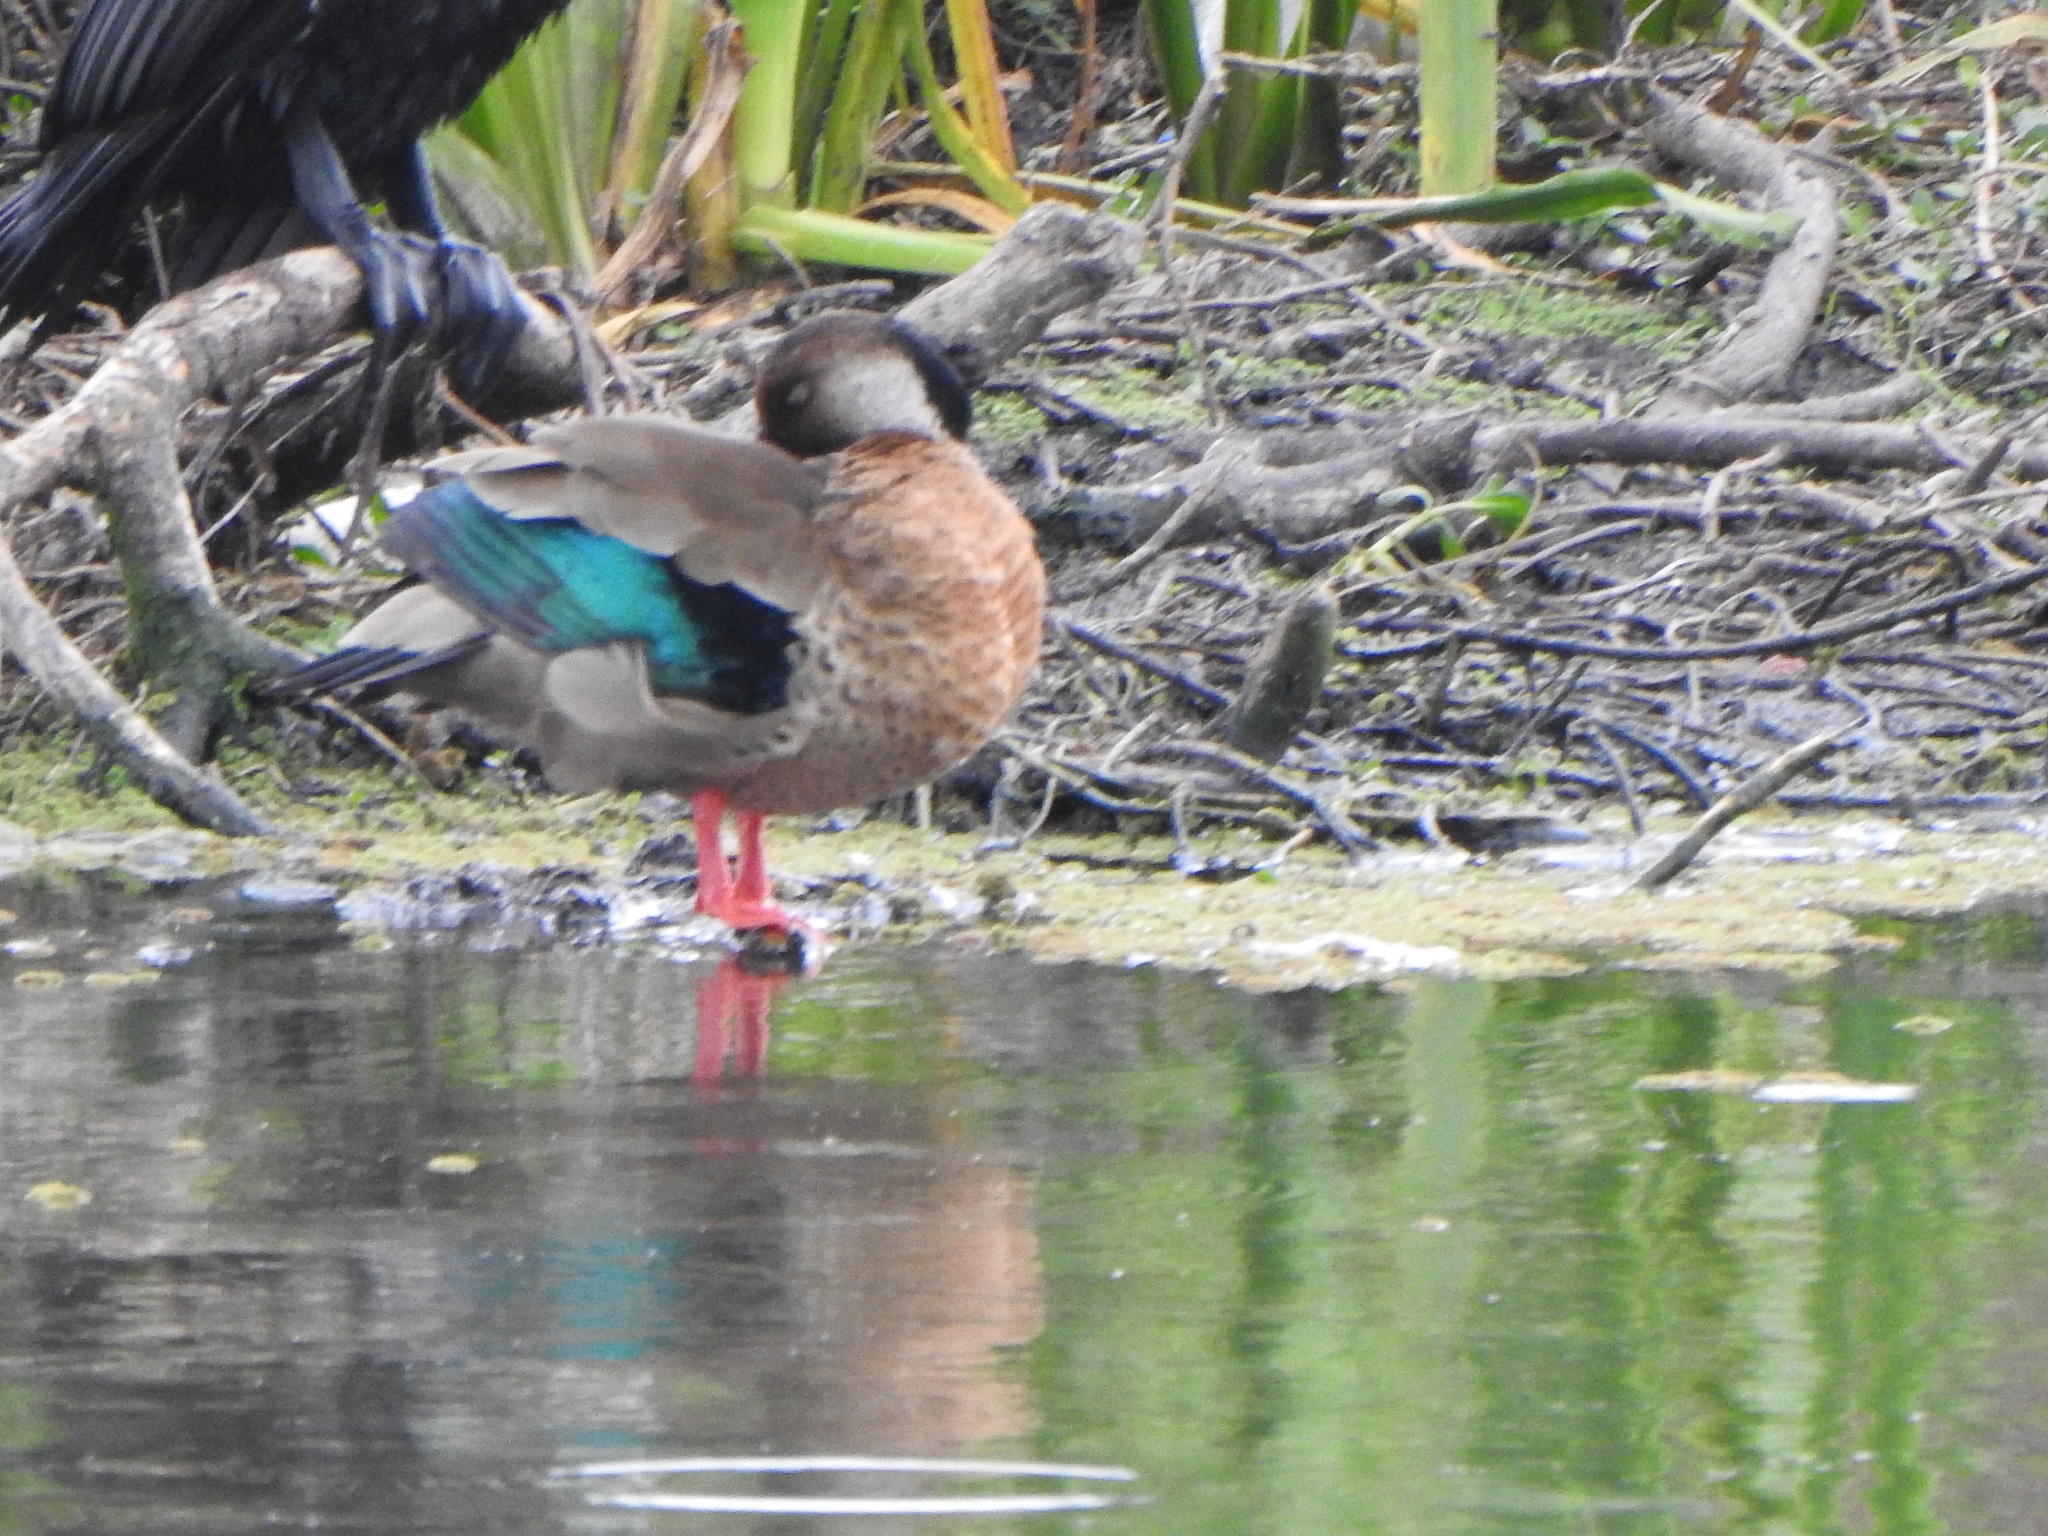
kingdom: Animalia
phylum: Chordata
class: Aves
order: Anseriformes
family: Anatidae
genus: Amazonetta
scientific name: Amazonetta brasiliensis
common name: Brazilian teal
